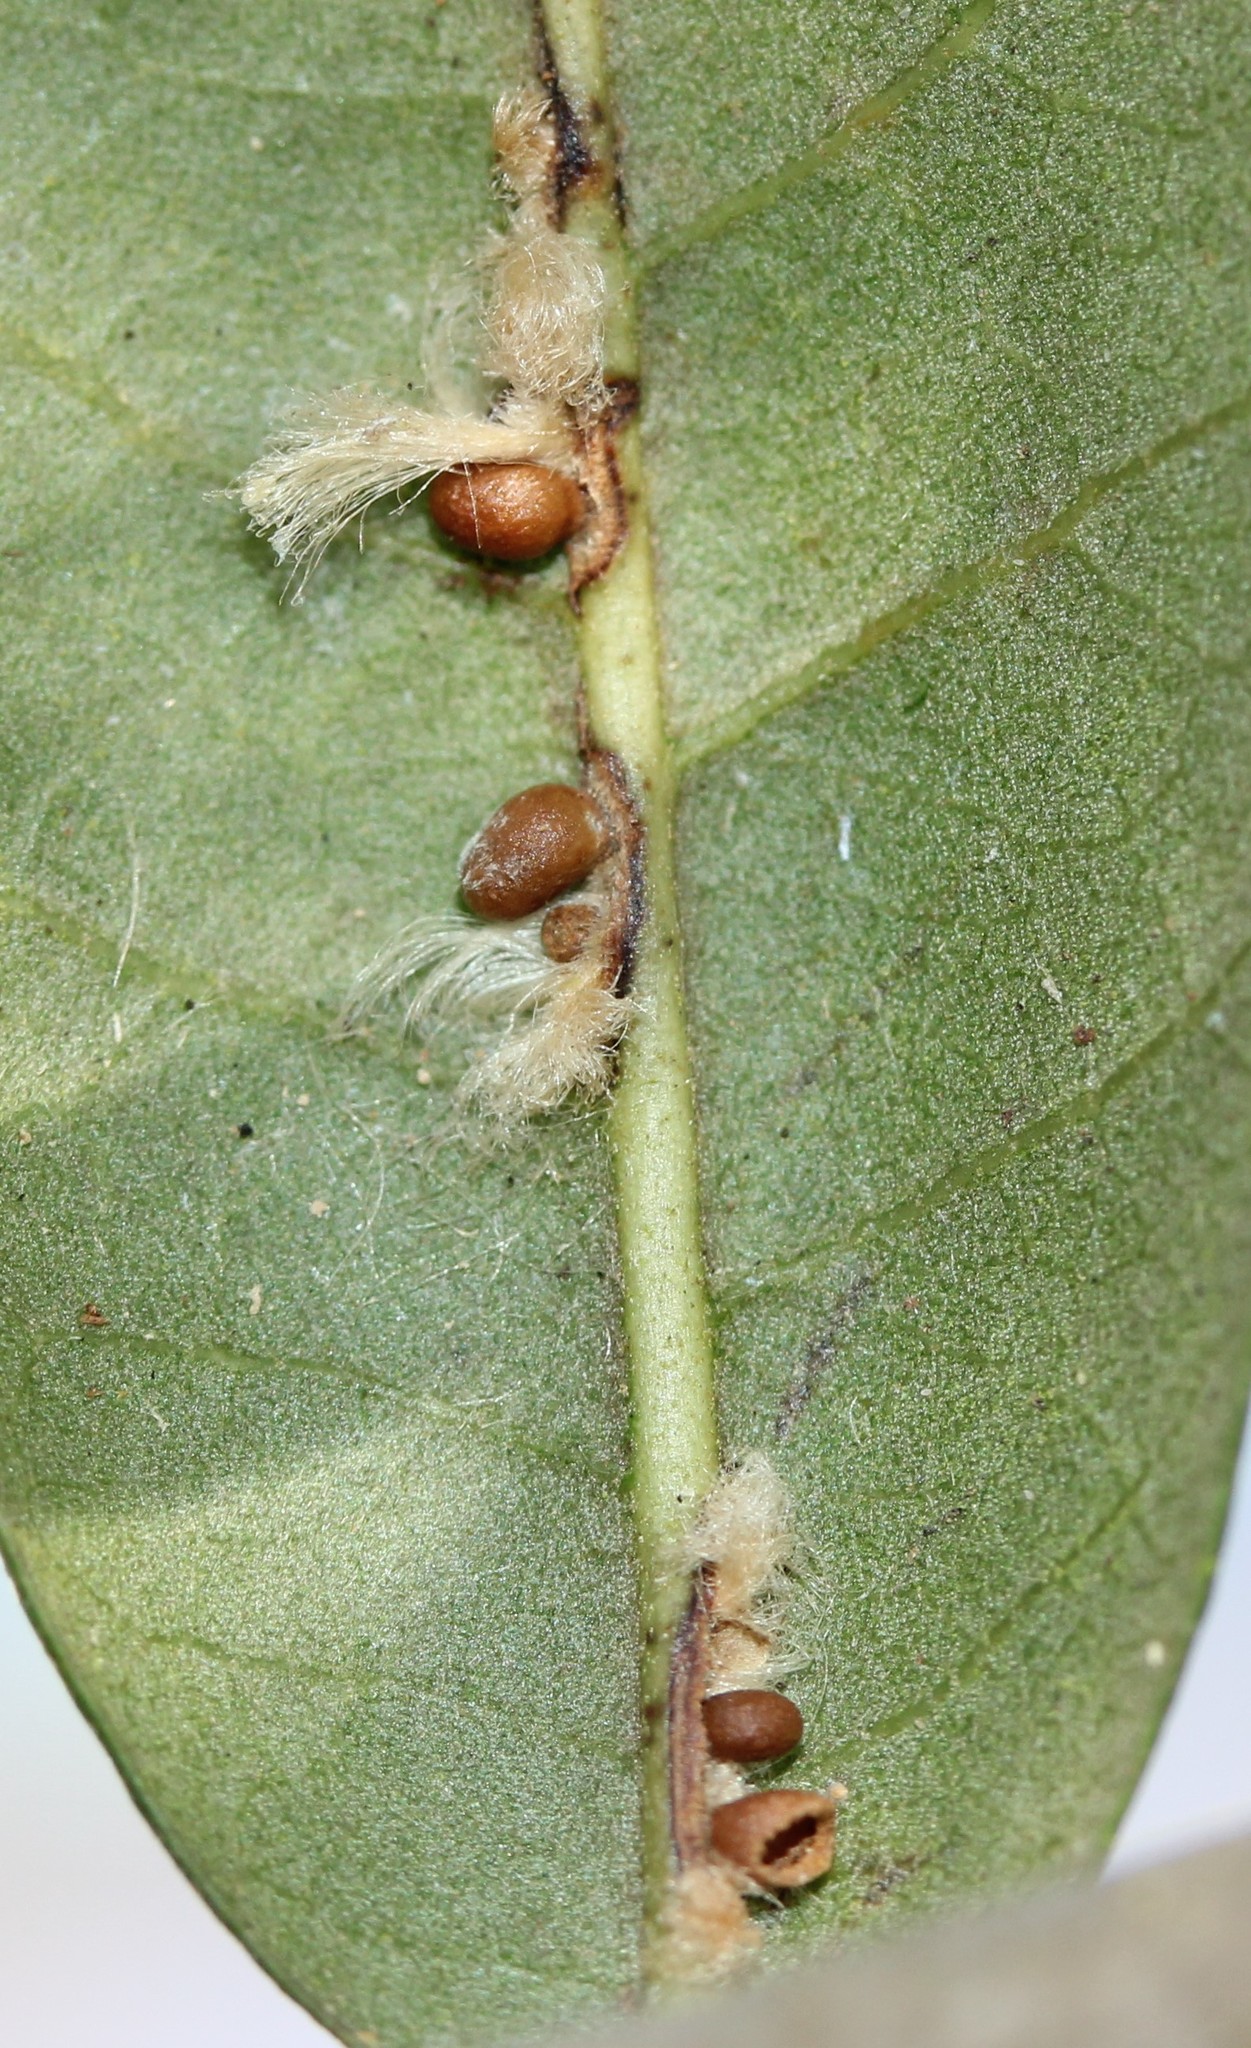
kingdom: Animalia
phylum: Arthropoda
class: Insecta
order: Hymenoptera
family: Cynipidae
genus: Andricus
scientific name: Andricus Druon quercuslanigerum
